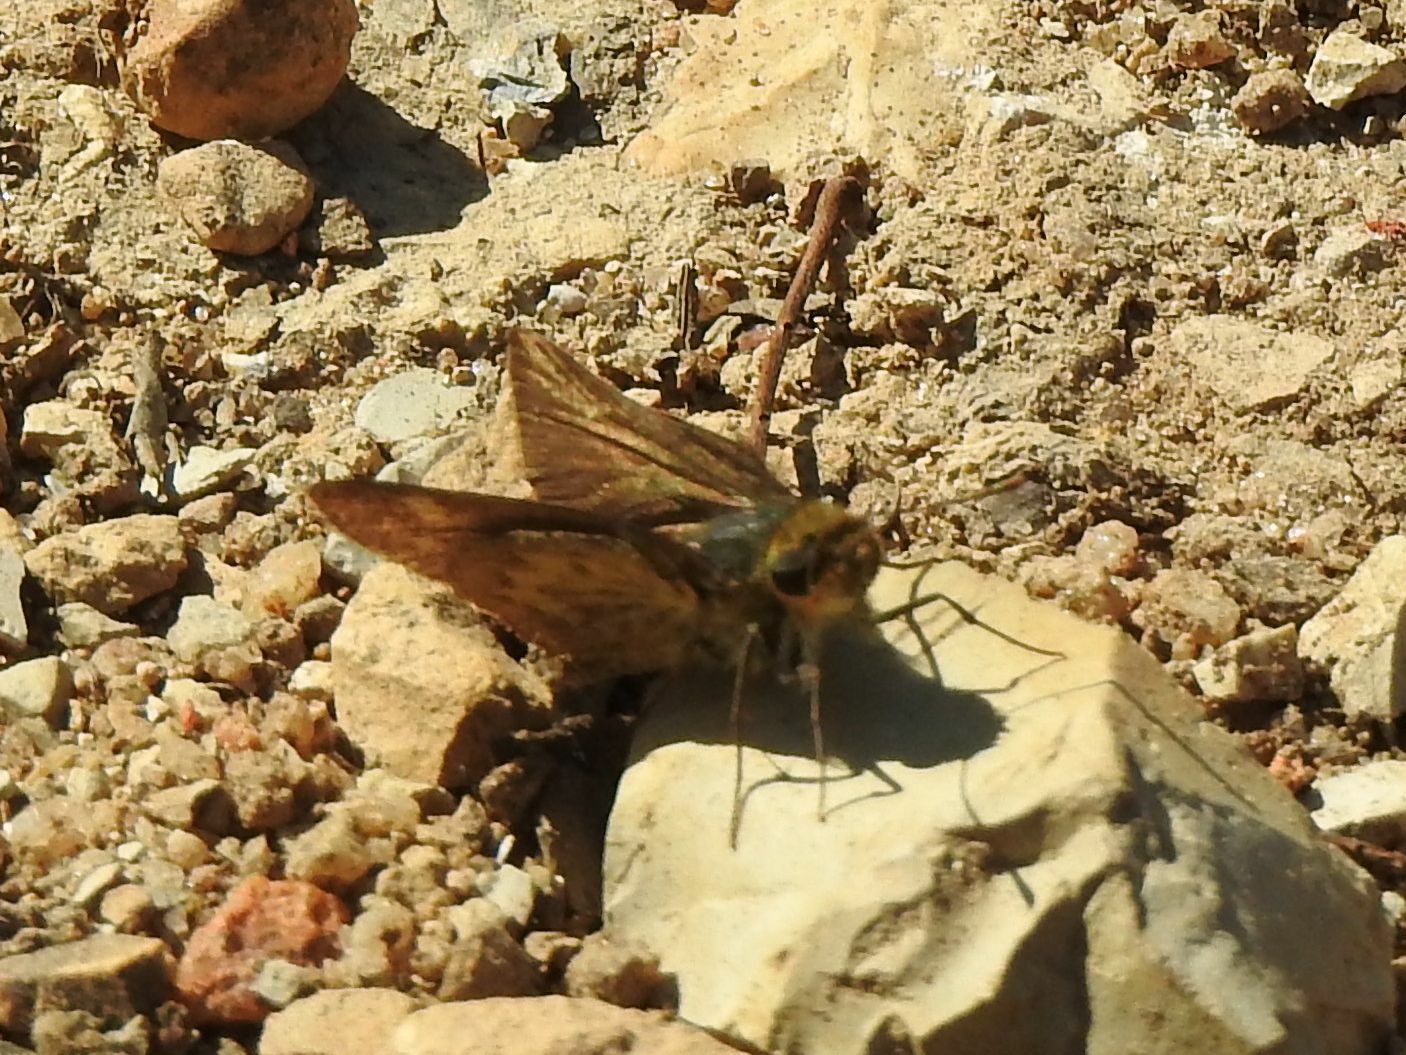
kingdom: Animalia
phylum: Arthropoda
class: Insecta
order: Hymenoptera
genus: Afrogenes
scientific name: Afrogenes
